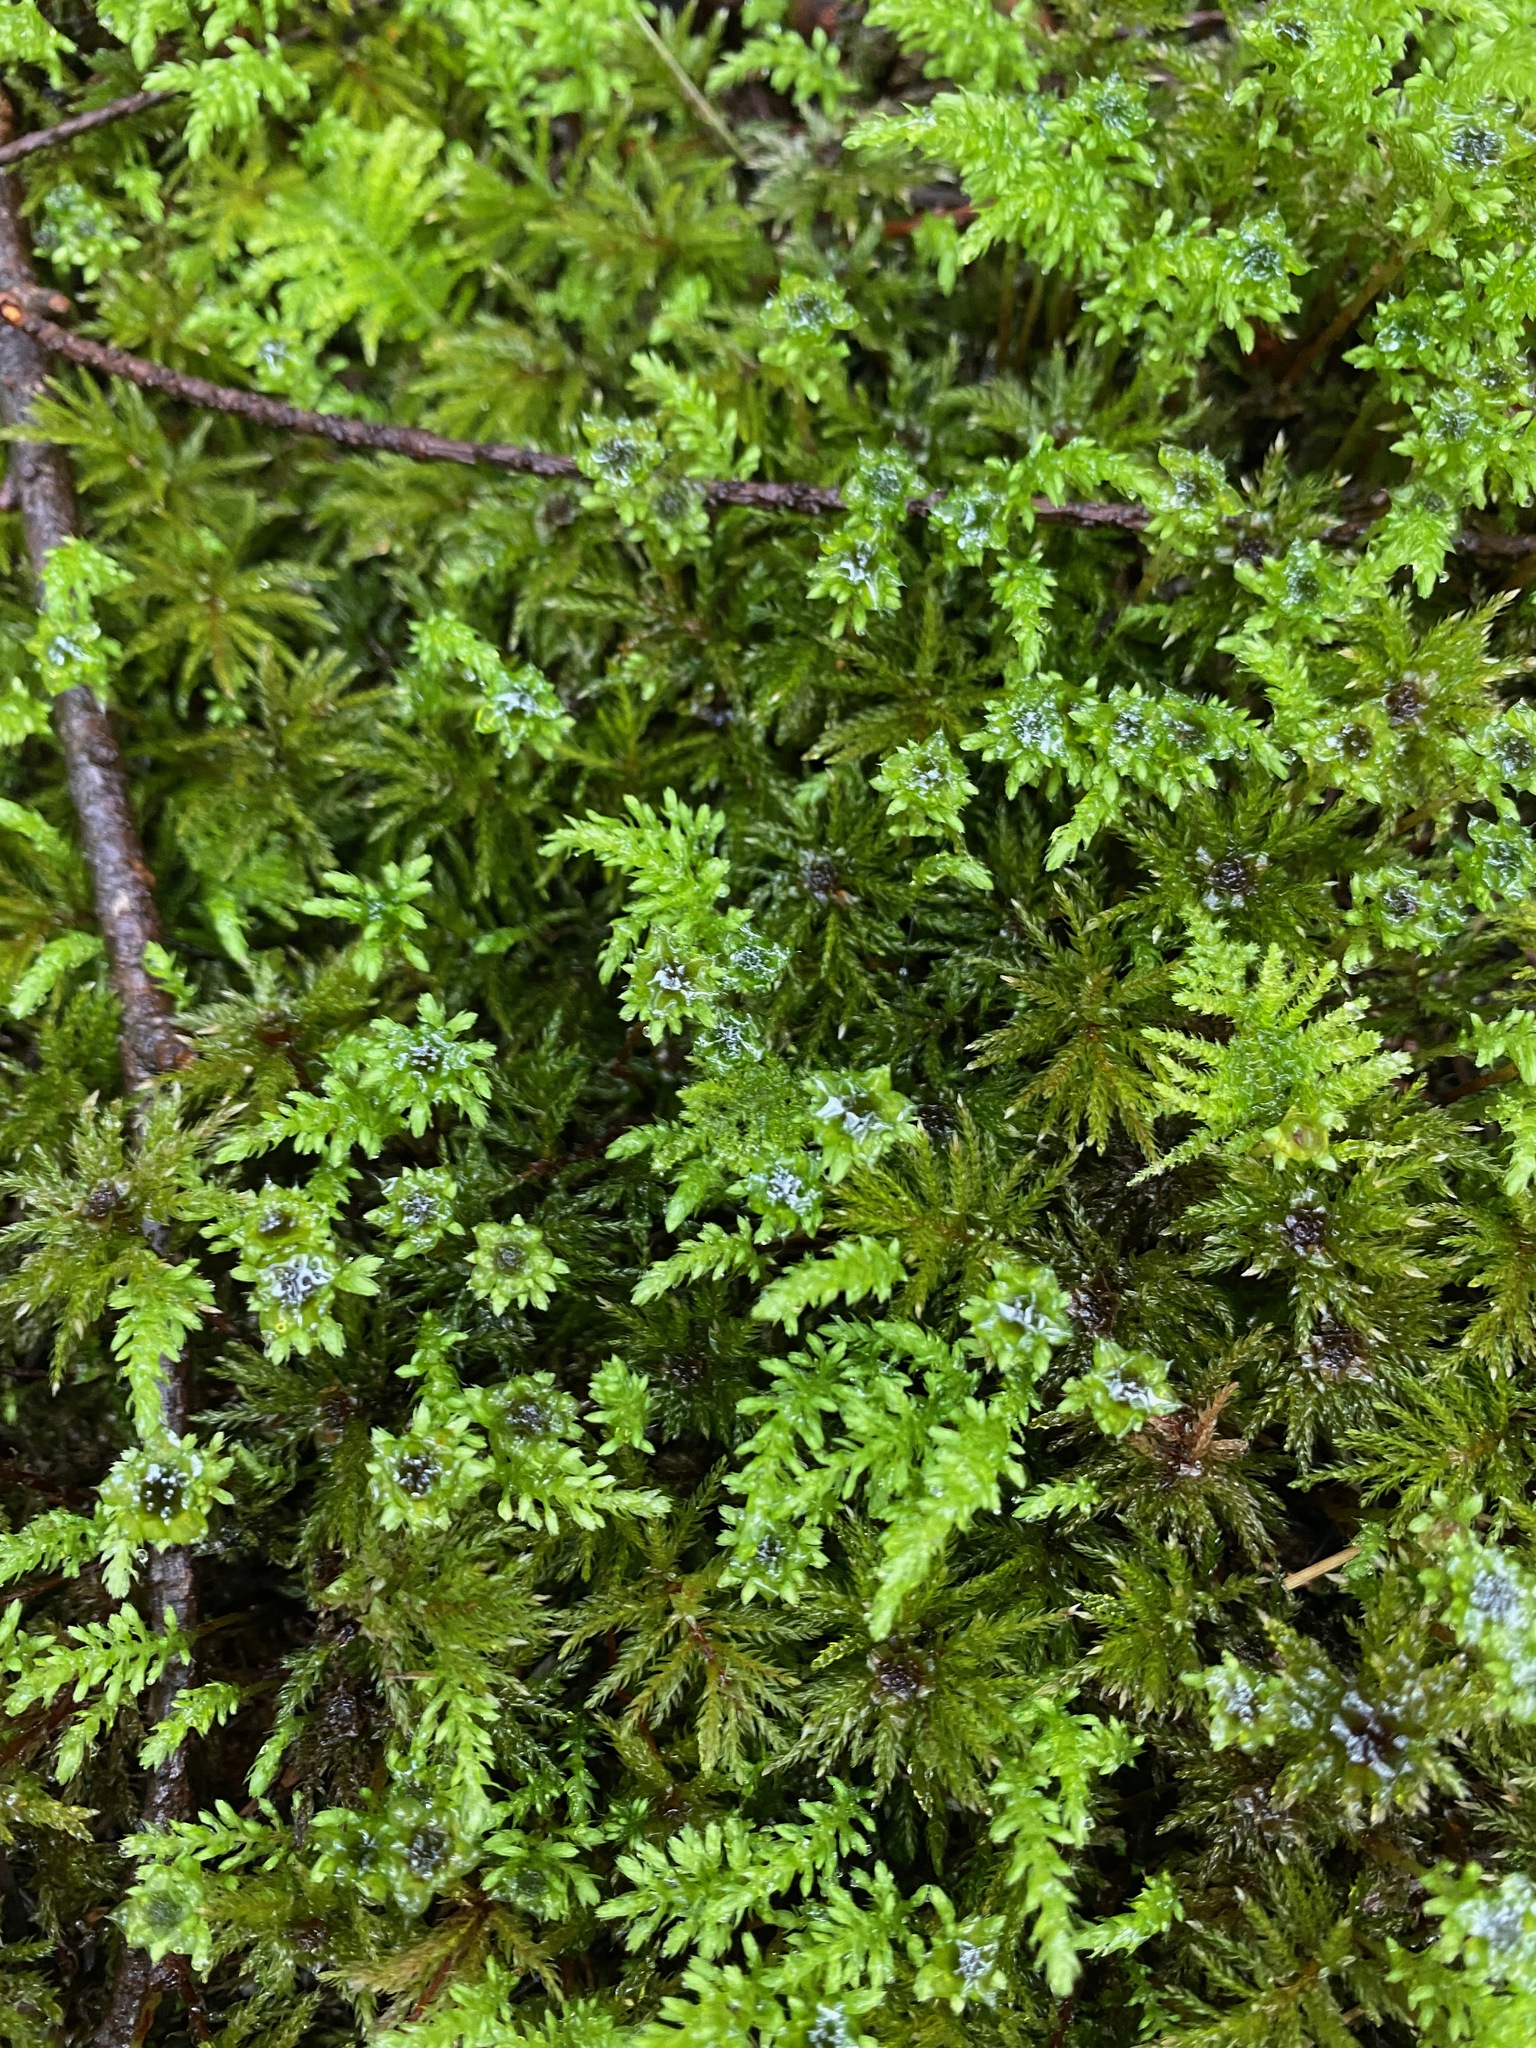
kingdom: Plantae
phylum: Bryophyta
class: Bryopsida
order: Bryales
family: Mniaceae
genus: Leucolepis
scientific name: Leucolepis acanthoneura
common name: Leucolepis umbrella moss
